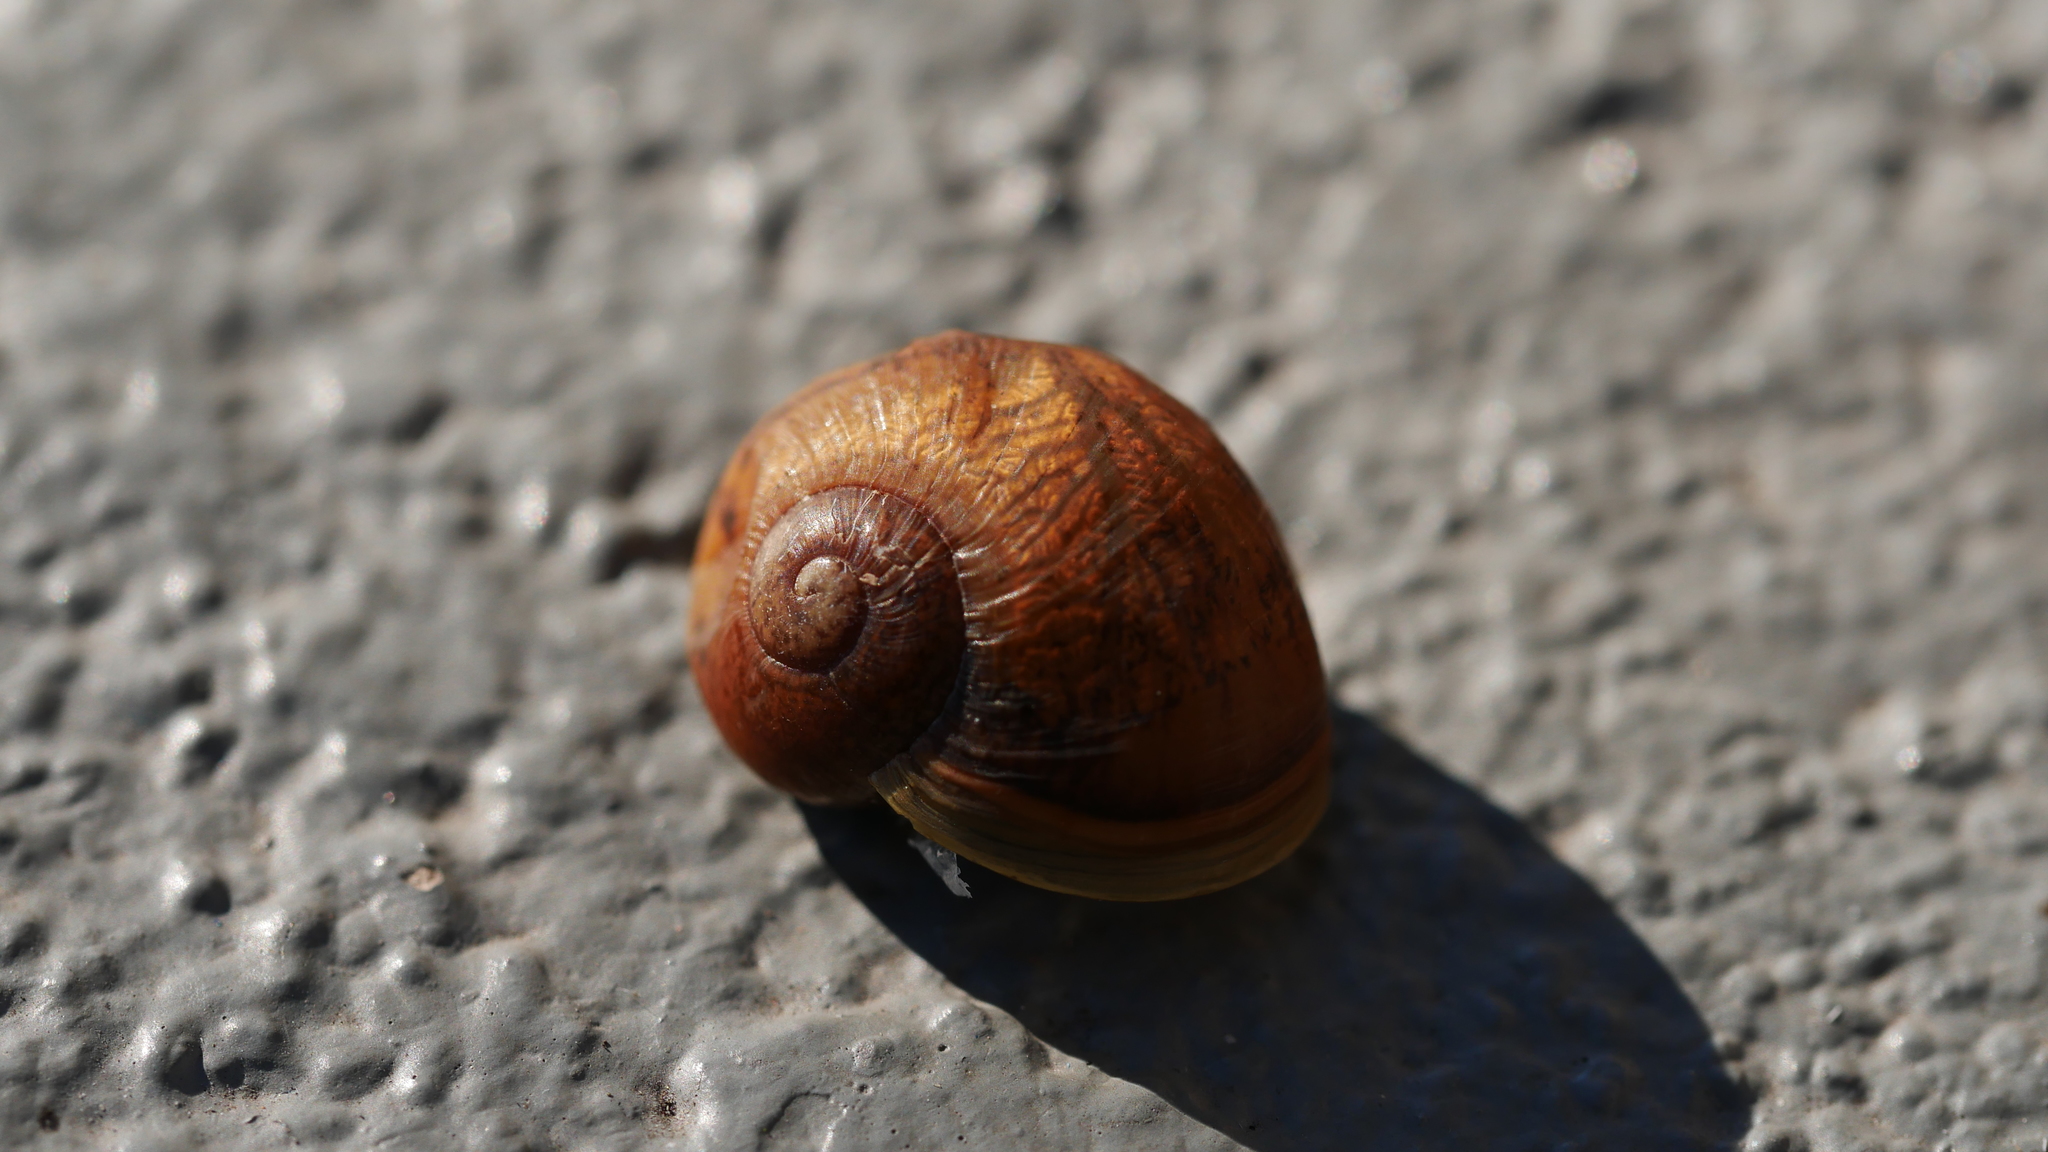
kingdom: Animalia
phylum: Mollusca
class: Gastropoda
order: Stylommatophora
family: Helicidae
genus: Cantareus
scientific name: Cantareus apertus
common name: Green gardensnail
